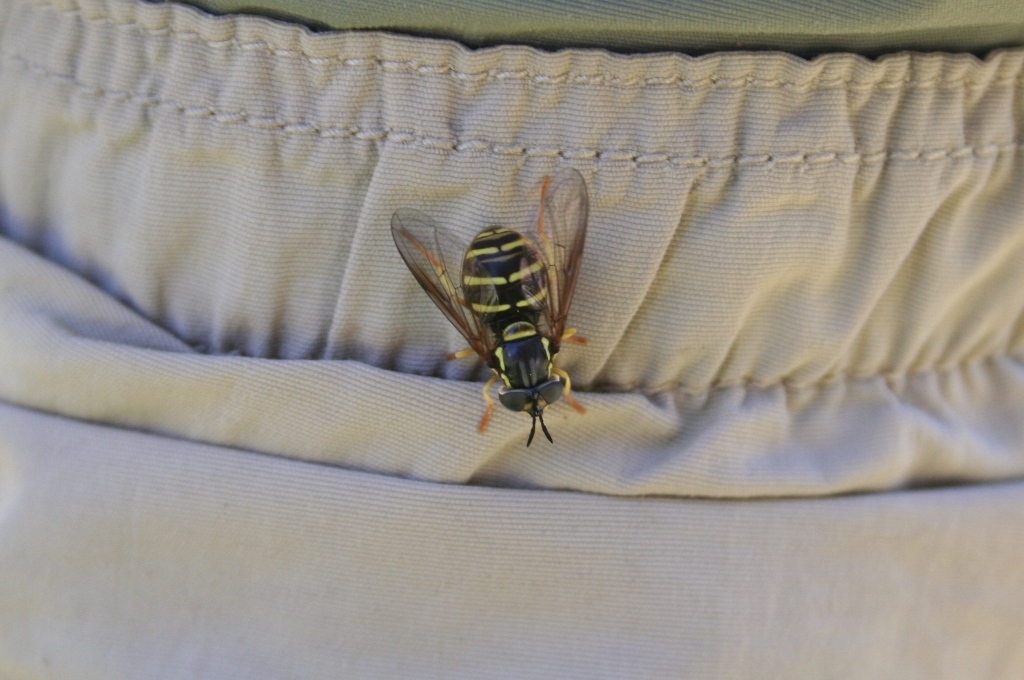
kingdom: Animalia
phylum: Arthropoda
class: Insecta
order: Diptera
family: Syrphidae
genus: Chrysotoxum
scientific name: Chrysotoxum
